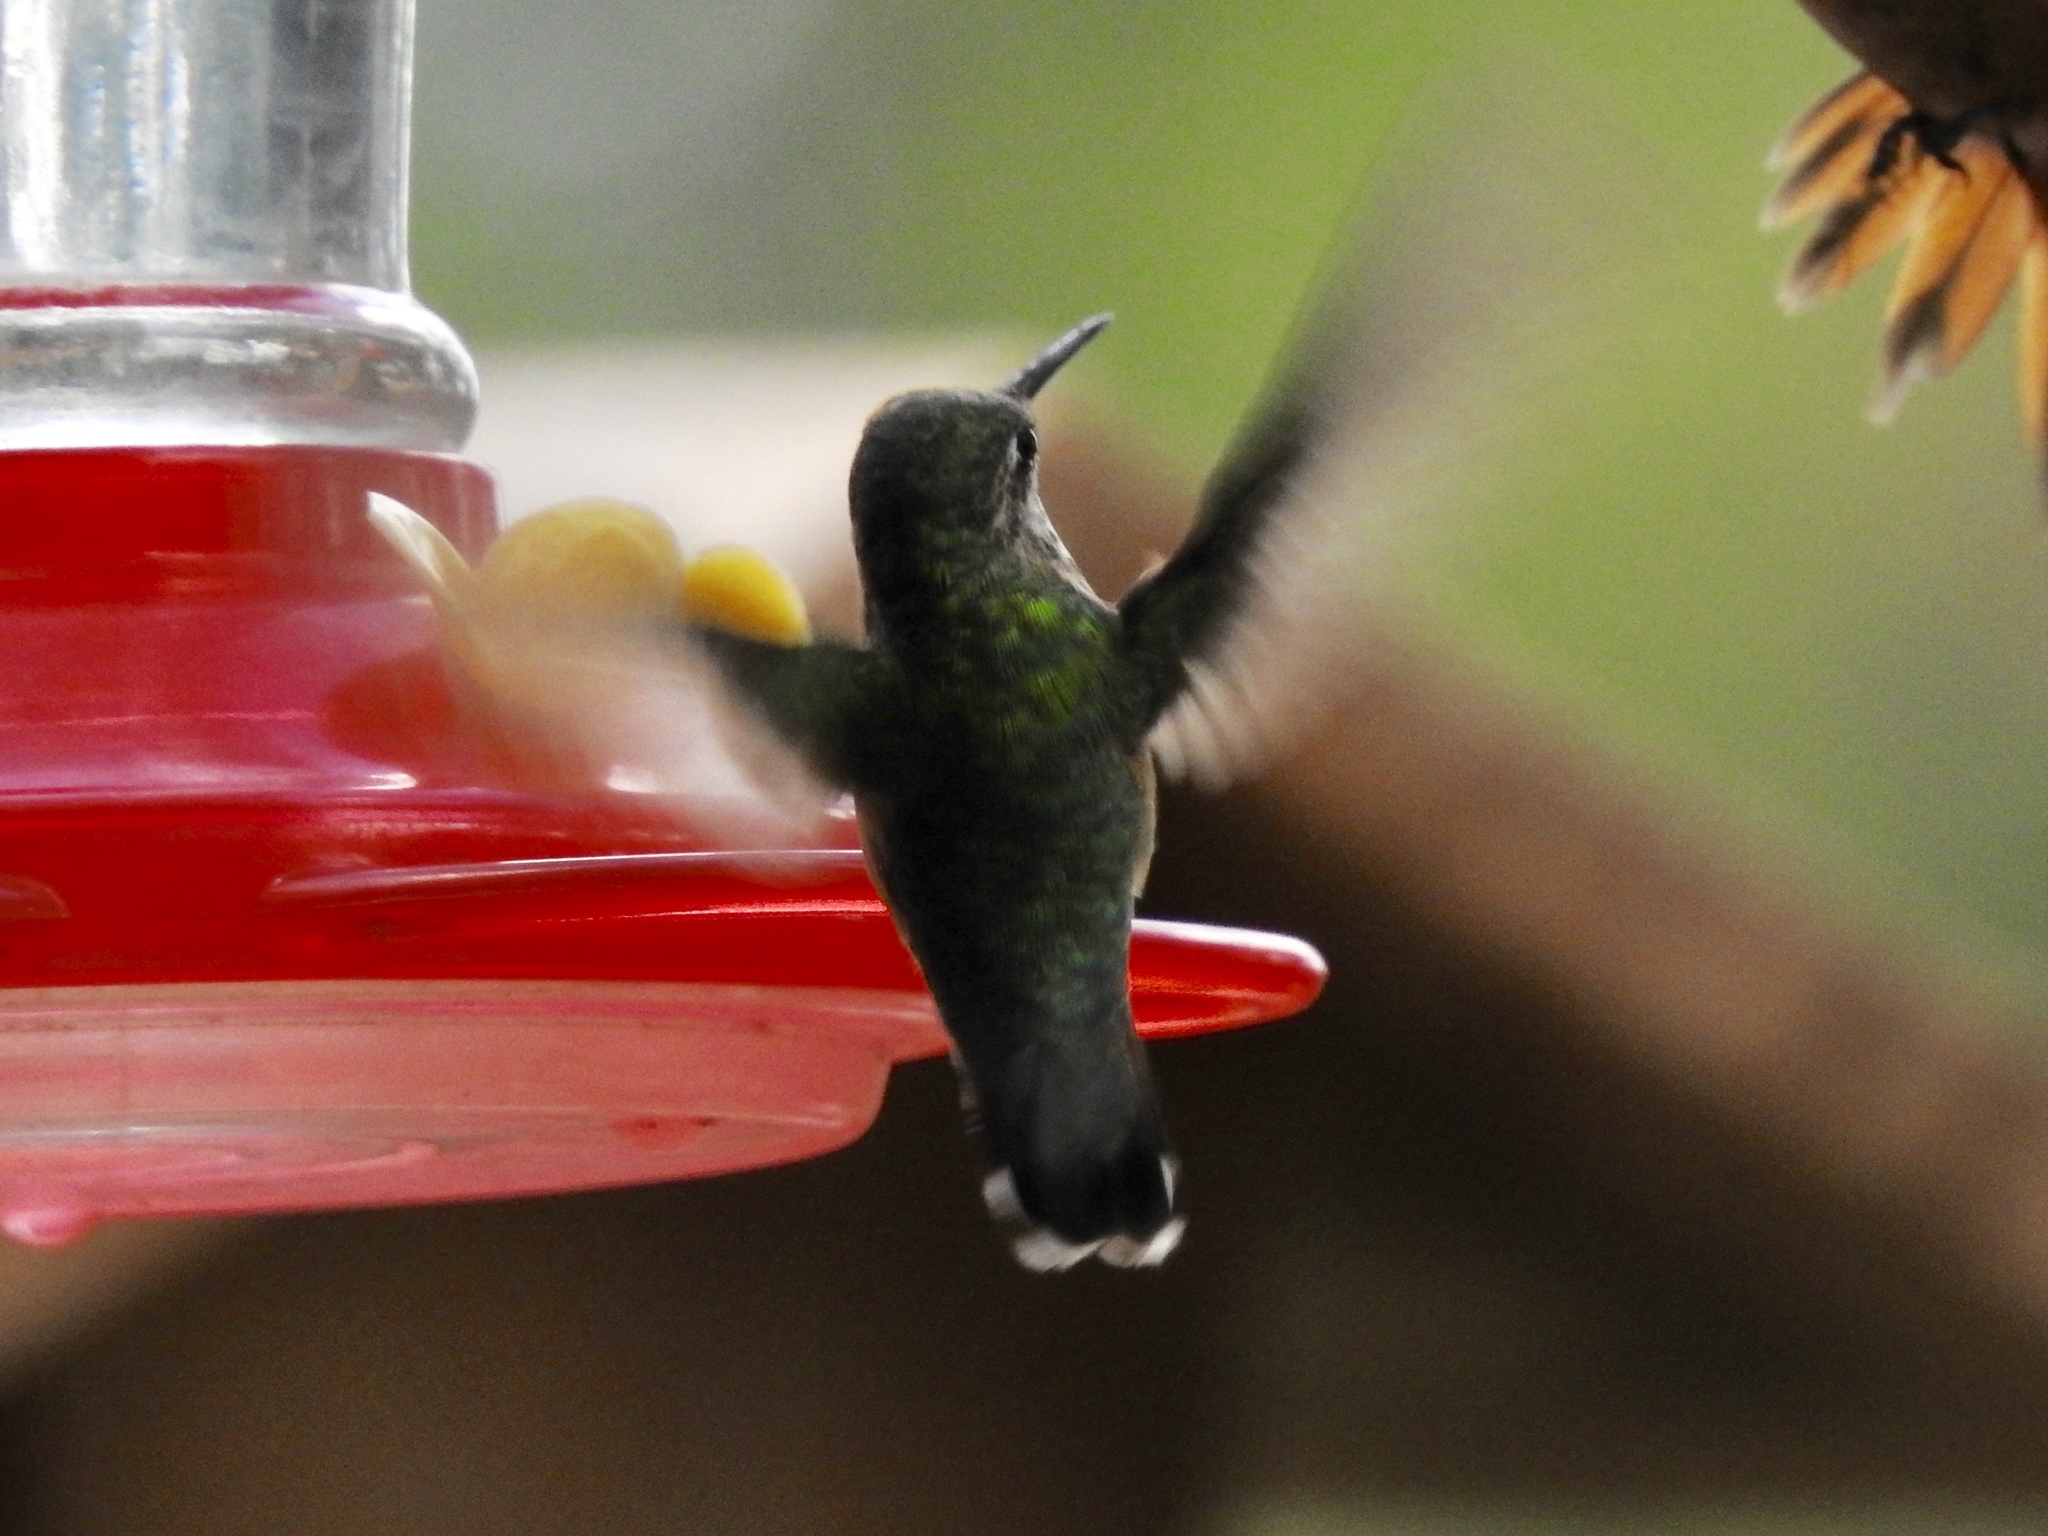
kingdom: Animalia
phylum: Chordata
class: Aves
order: Apodiformes
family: Trochilidae
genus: Selasphorus
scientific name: Selasphorus rufus
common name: Rufous hummingbird
